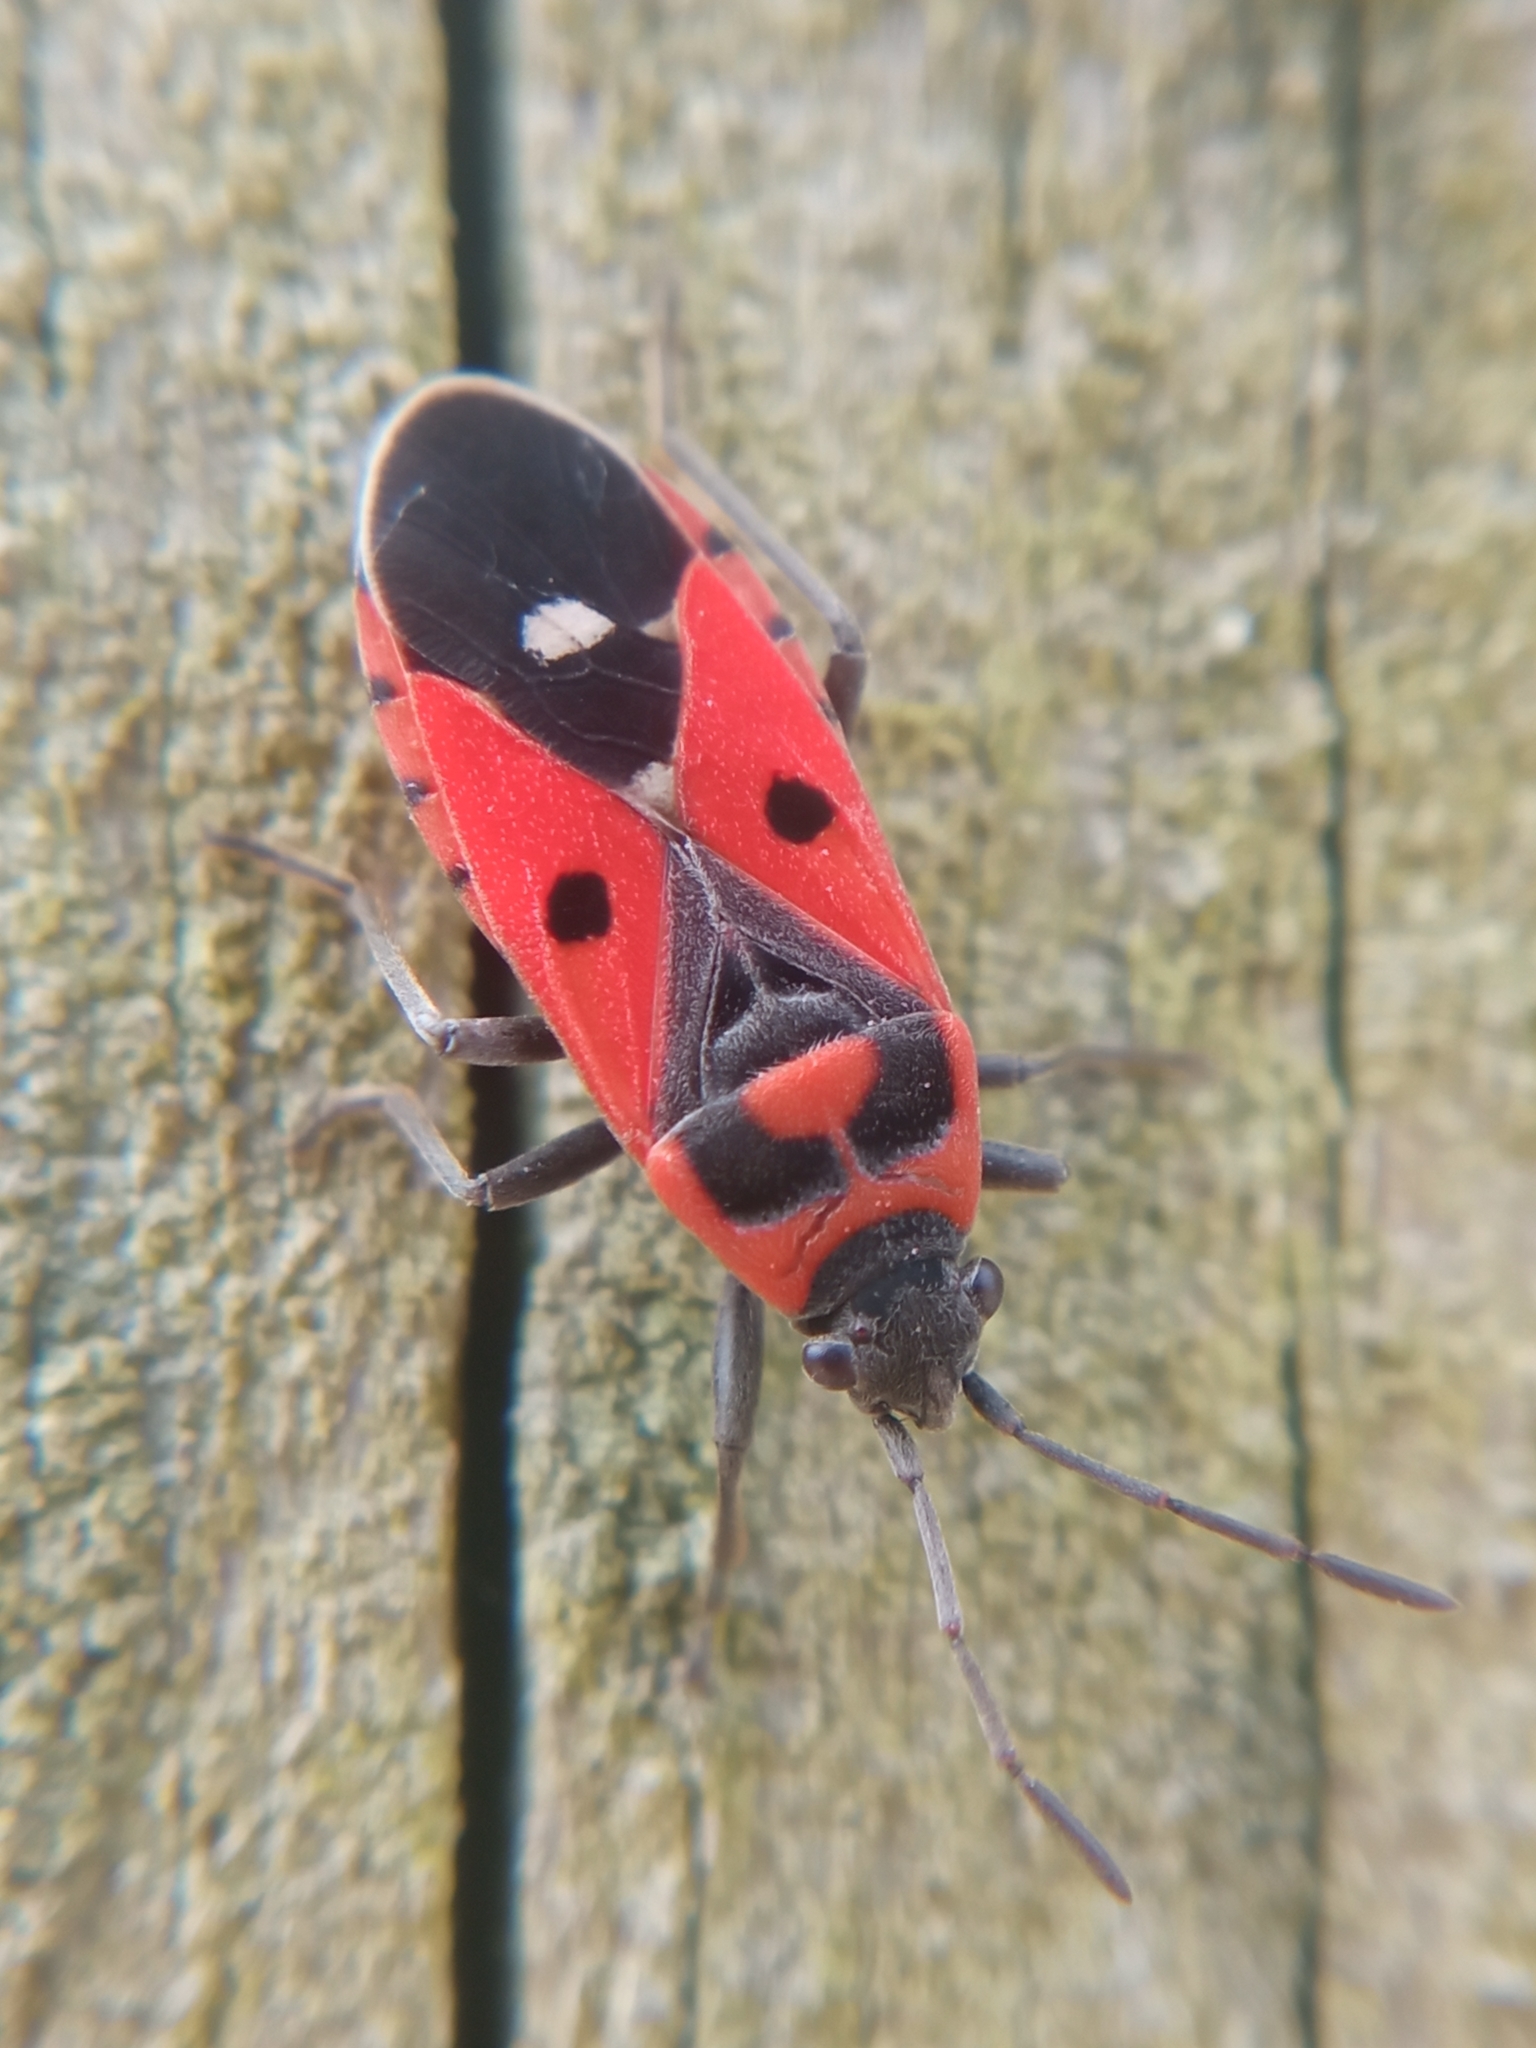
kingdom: Animalia
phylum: Arthropoda
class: Insecta
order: Hemiptera
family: Lygaeidae
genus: Melanocoryphus
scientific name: Melanocoryphus albomaculatus
